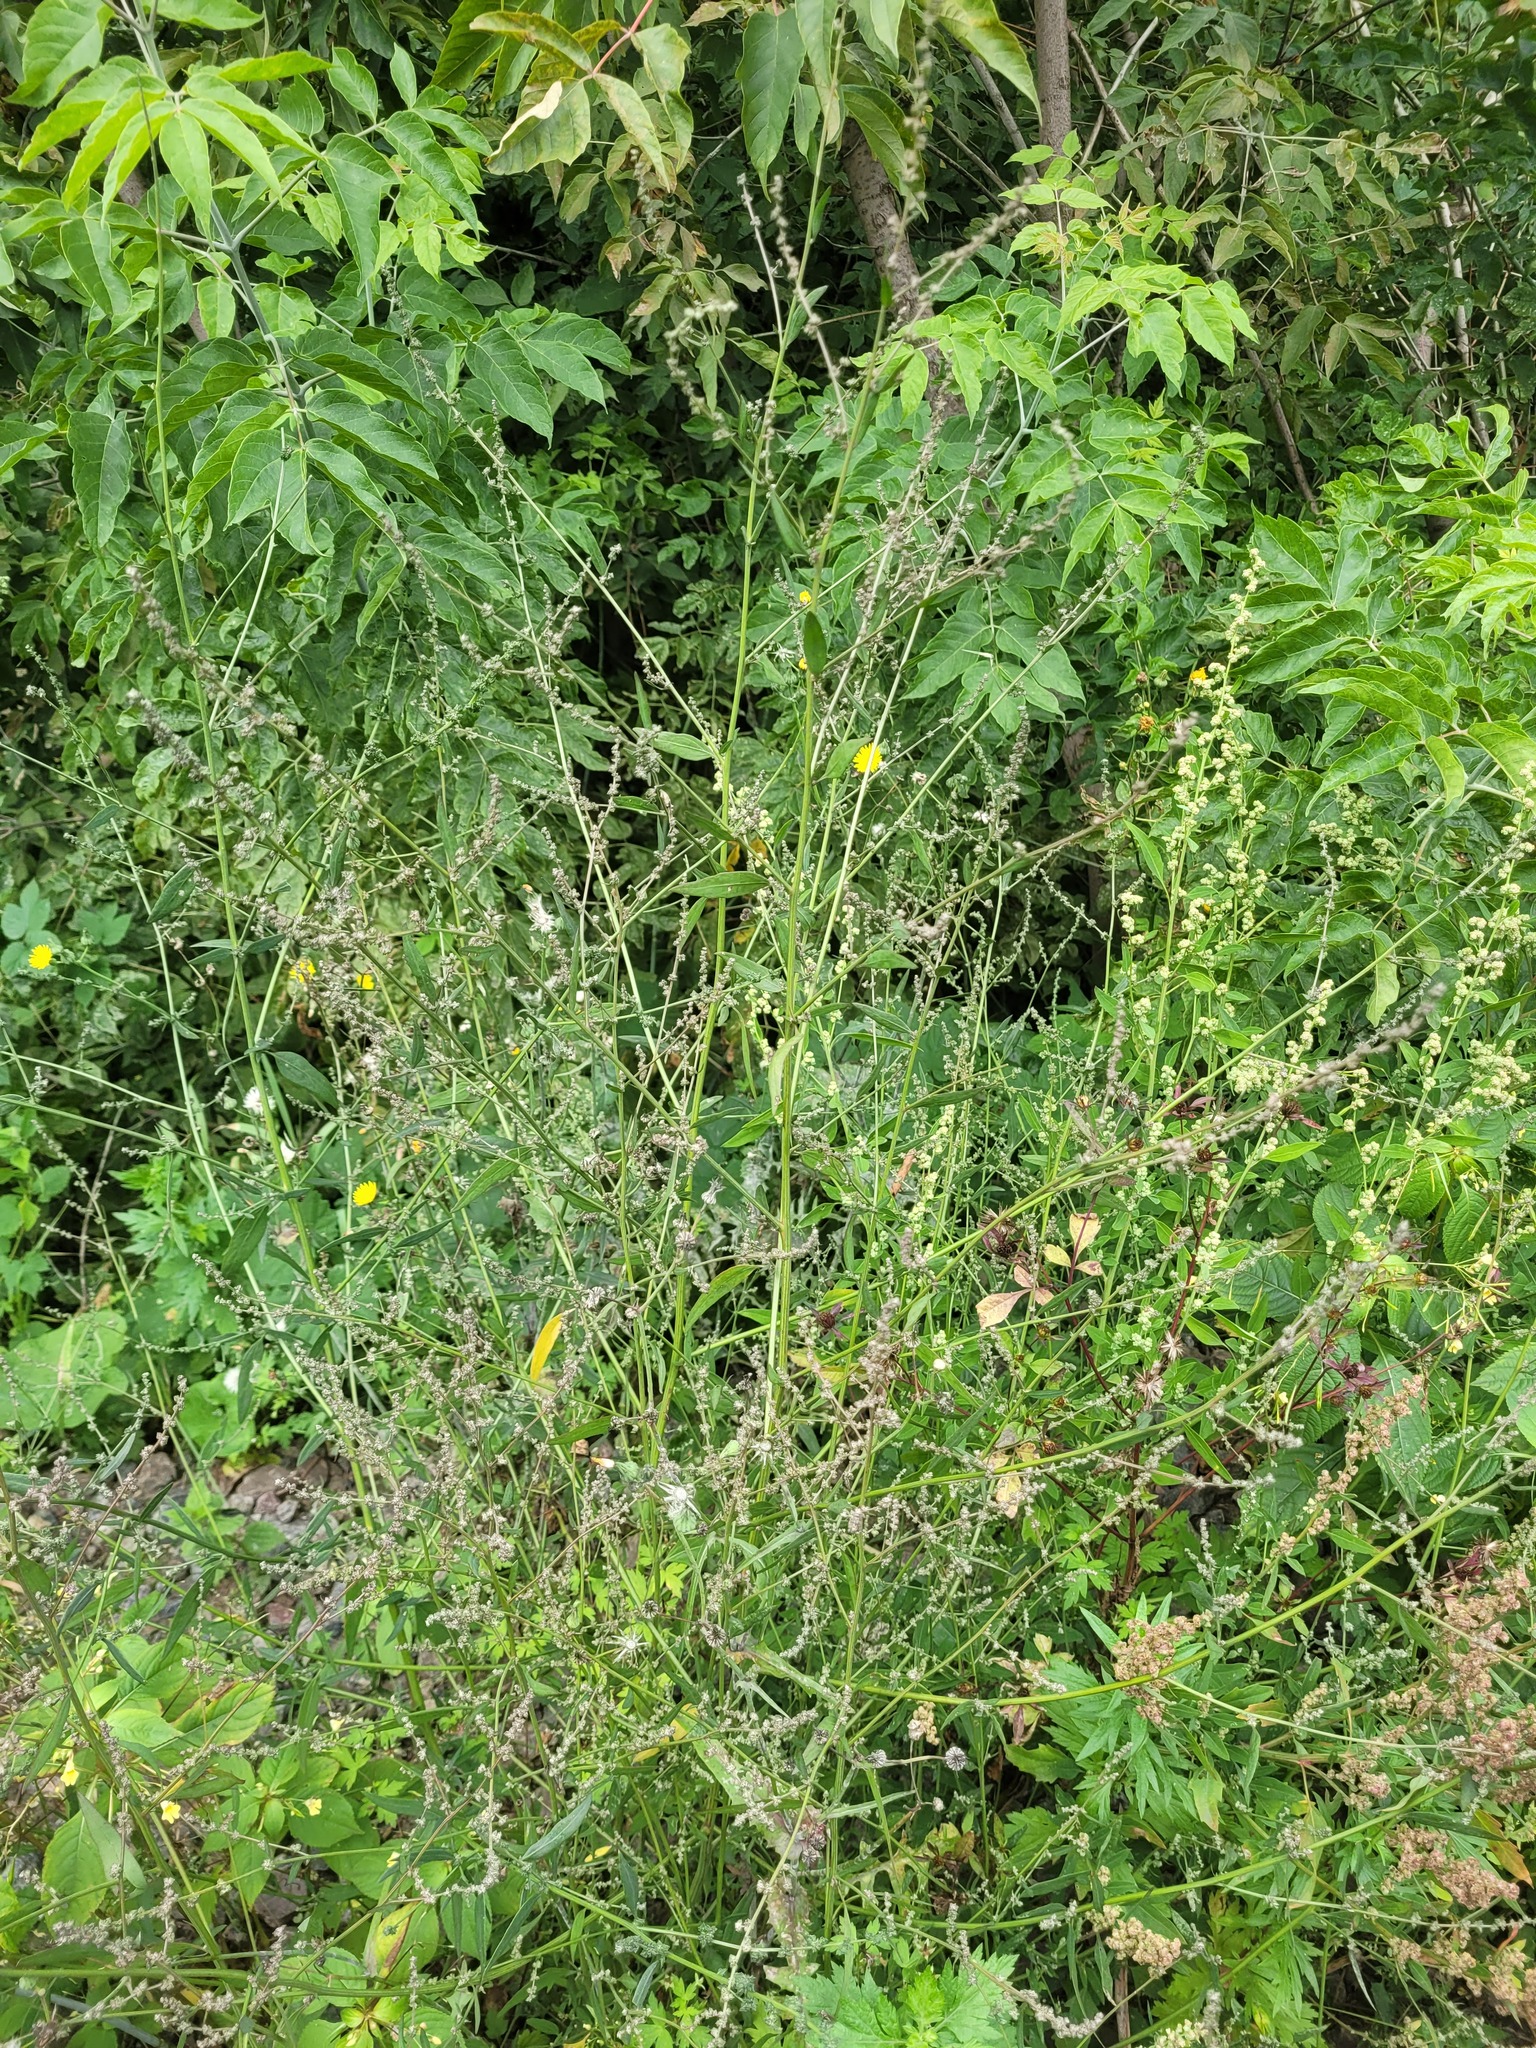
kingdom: Plantae
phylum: Tracheophyta
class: Magnoliopsida
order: Caryophyllales
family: Amaranthaceae
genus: Atriplex
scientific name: Atriplex patula
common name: Common orache
